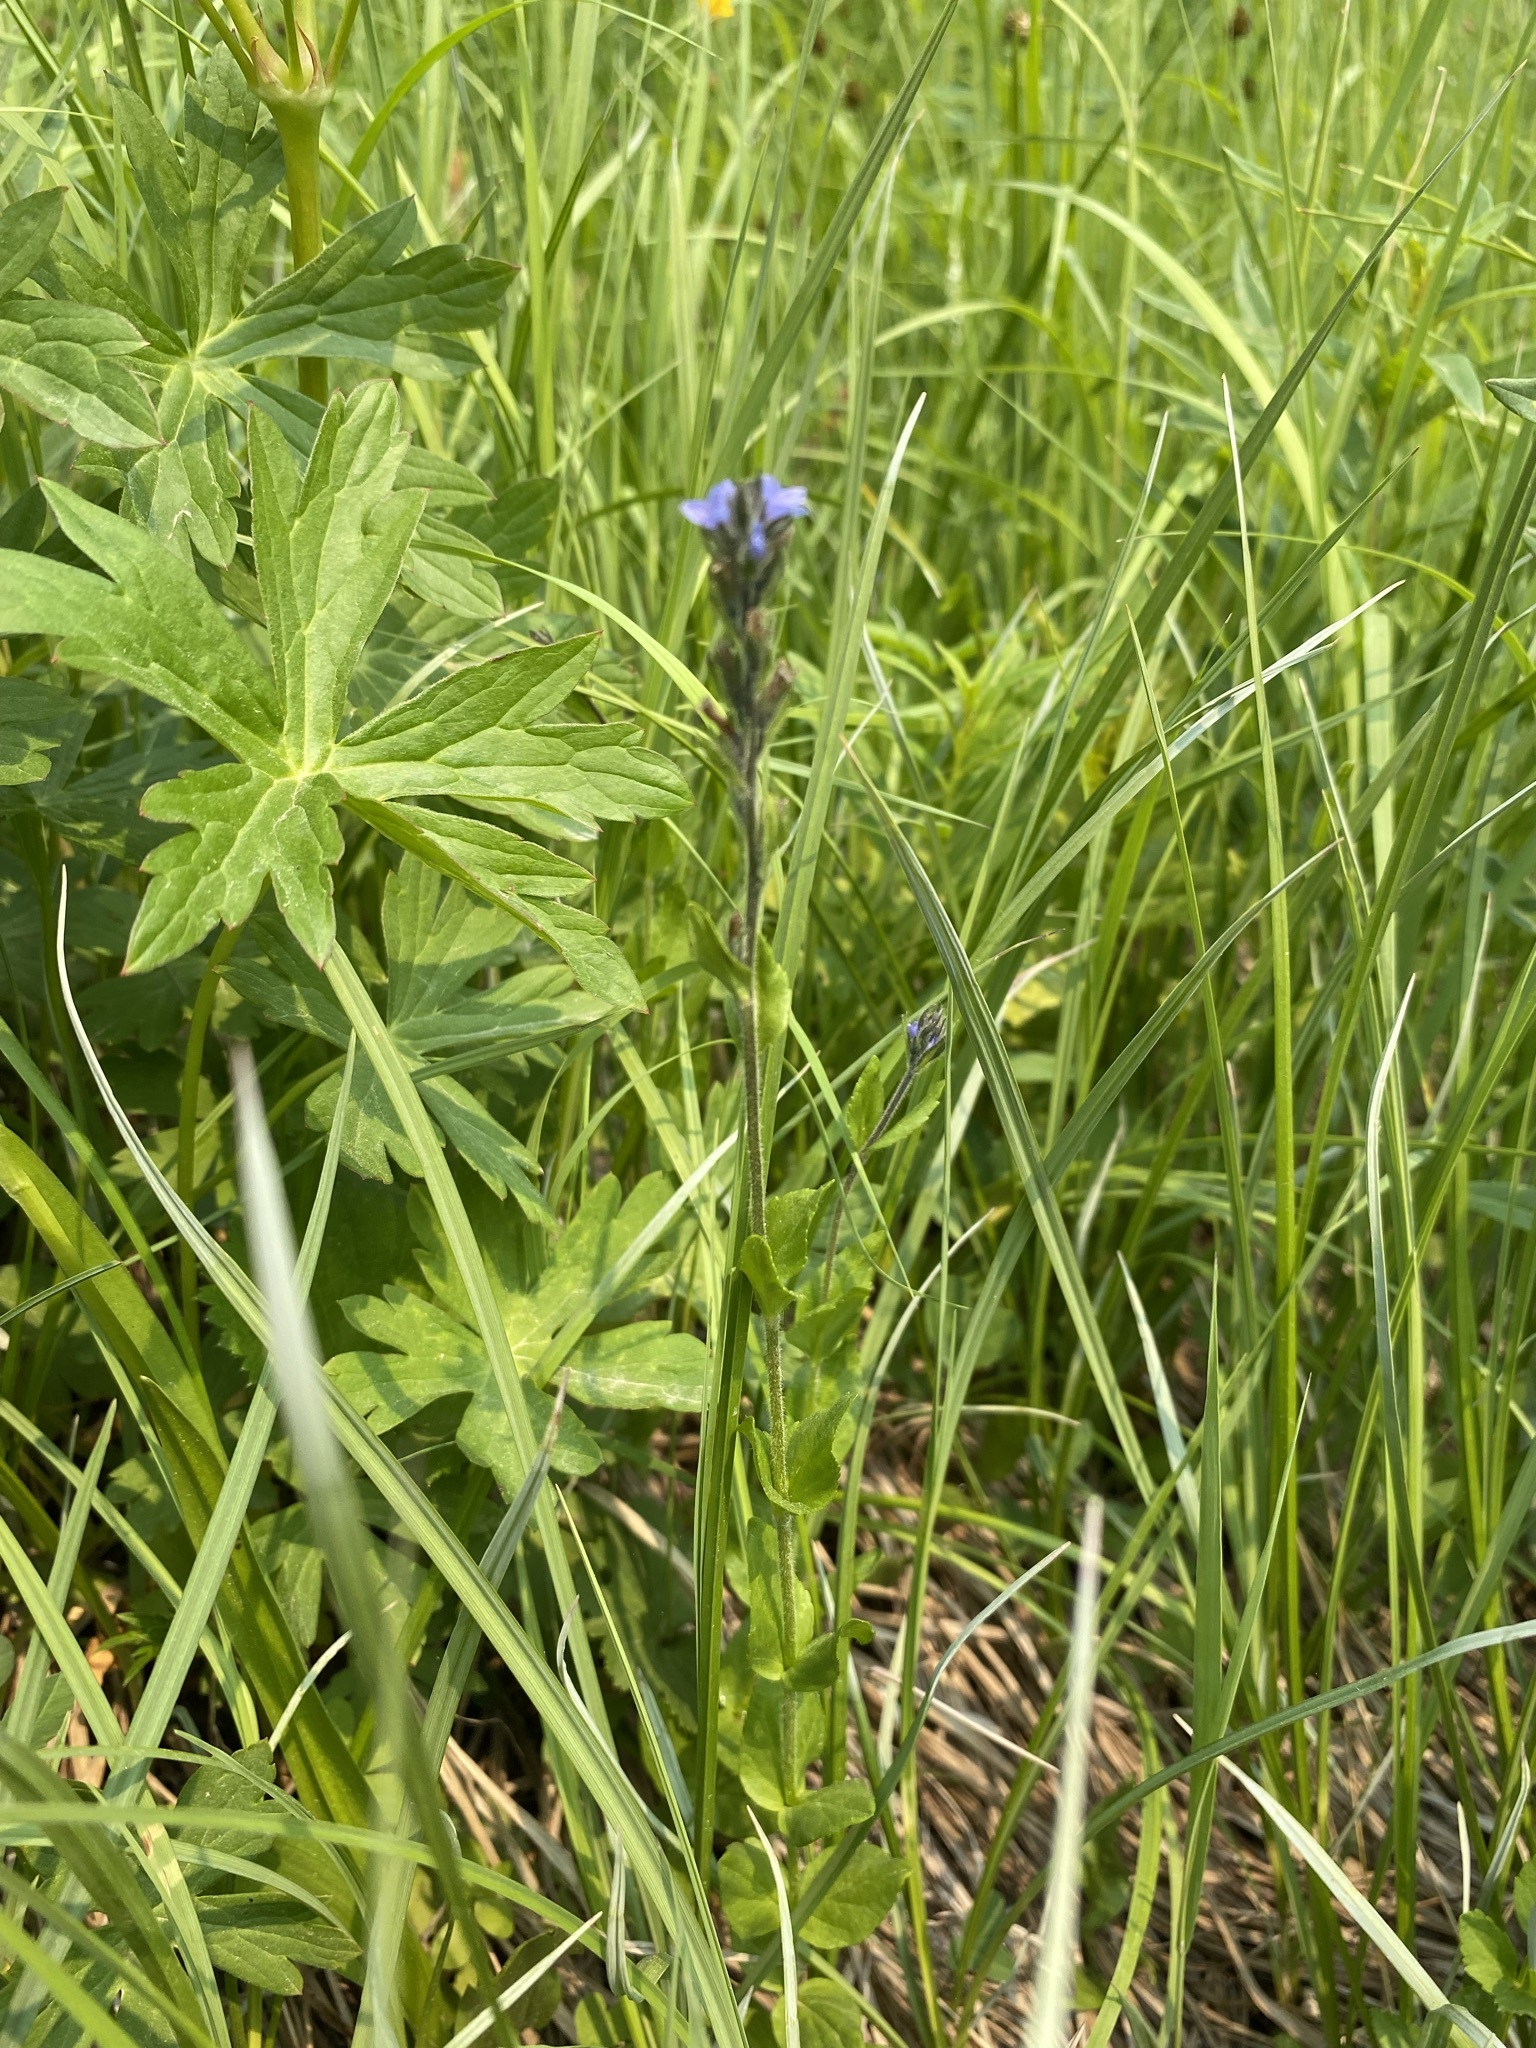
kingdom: Plantae
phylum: Tracheophyta
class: Magnoliopsida
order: Lamiales
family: Plantaginaceae
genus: Veronica
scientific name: Veronica wormskjoldii
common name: American alpine speedwell
